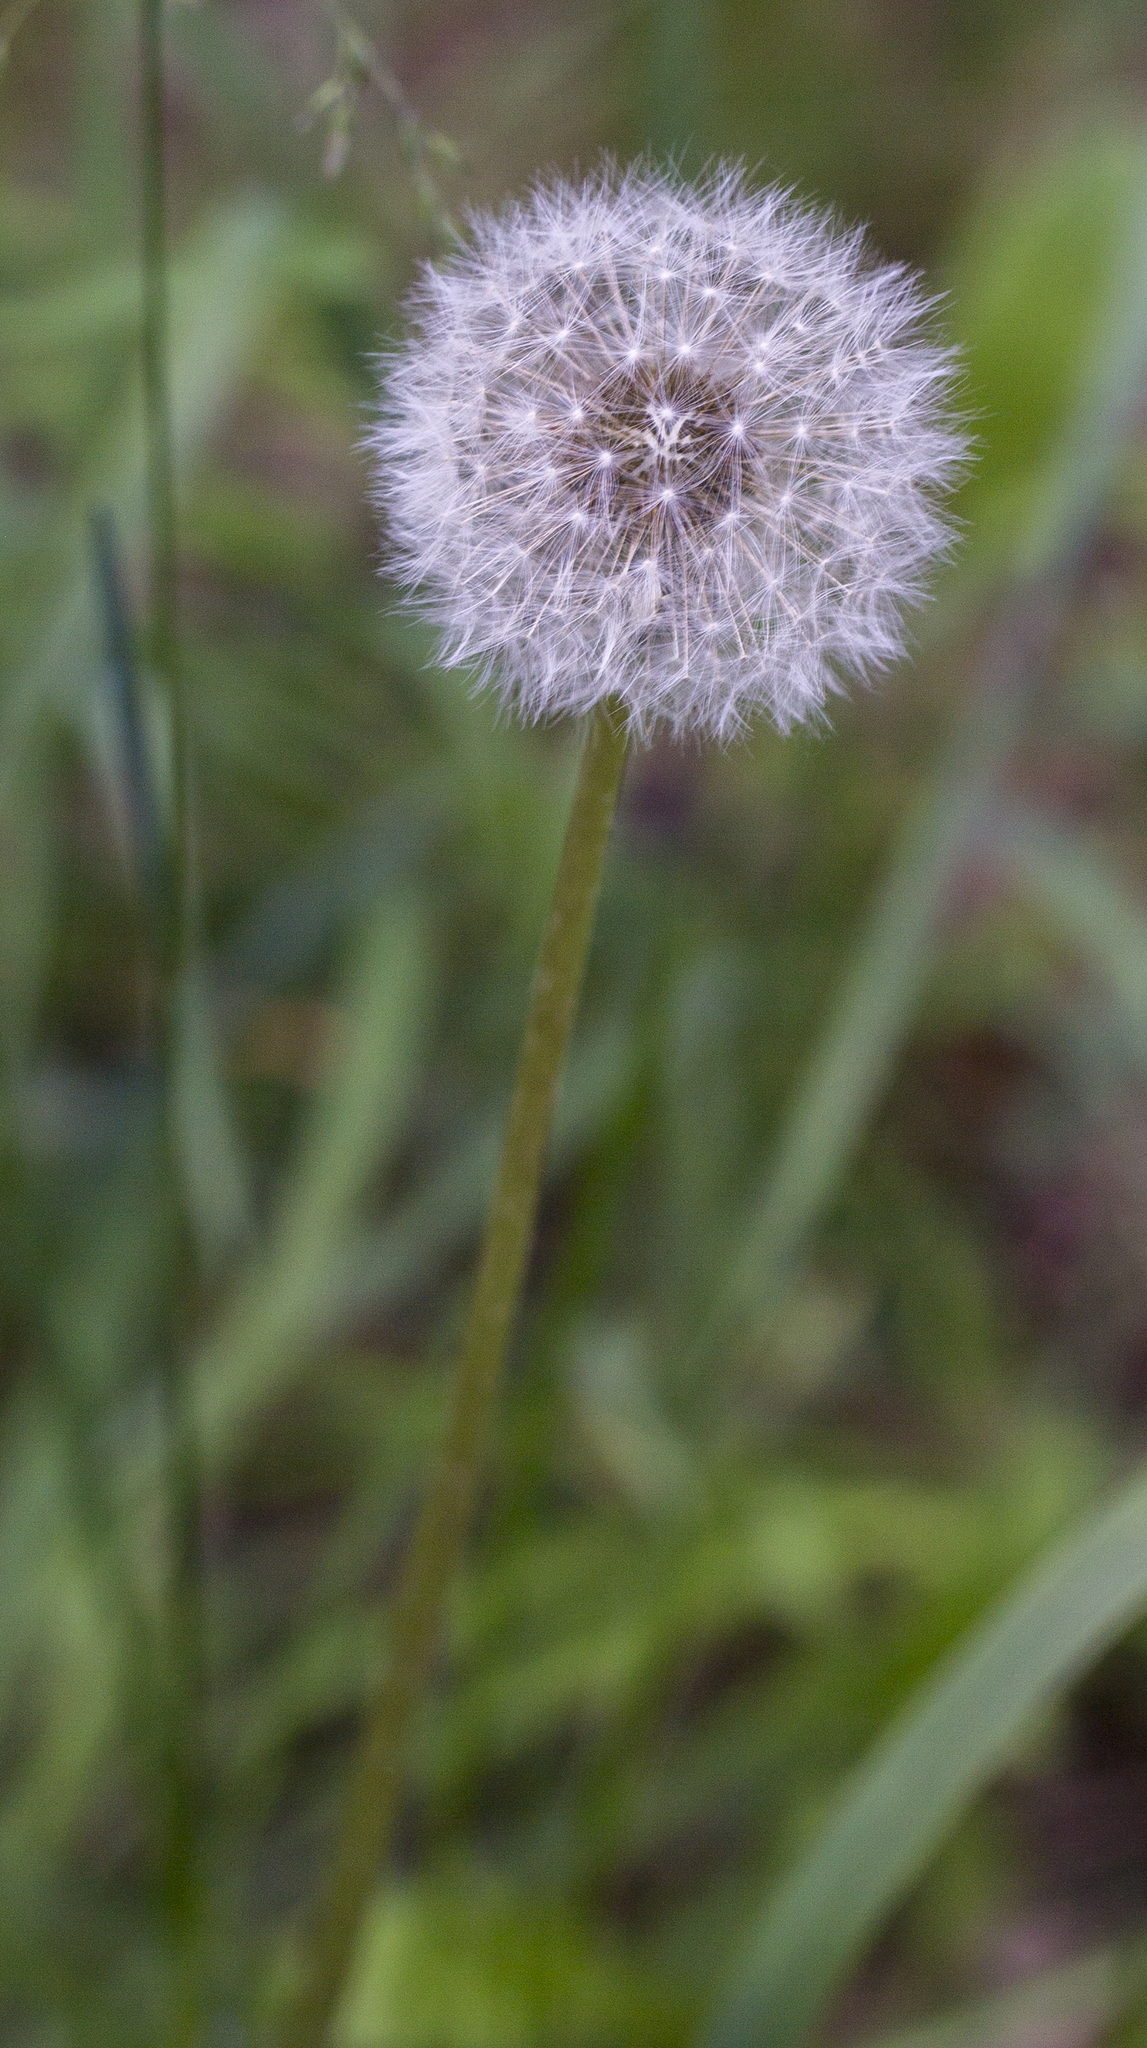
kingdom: Plantae
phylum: Tracheophyta
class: Magnoliopsida
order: Asterales
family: Asteraceae
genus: Taraxacum
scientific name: Taraxacum officinale
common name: Common dandelion
